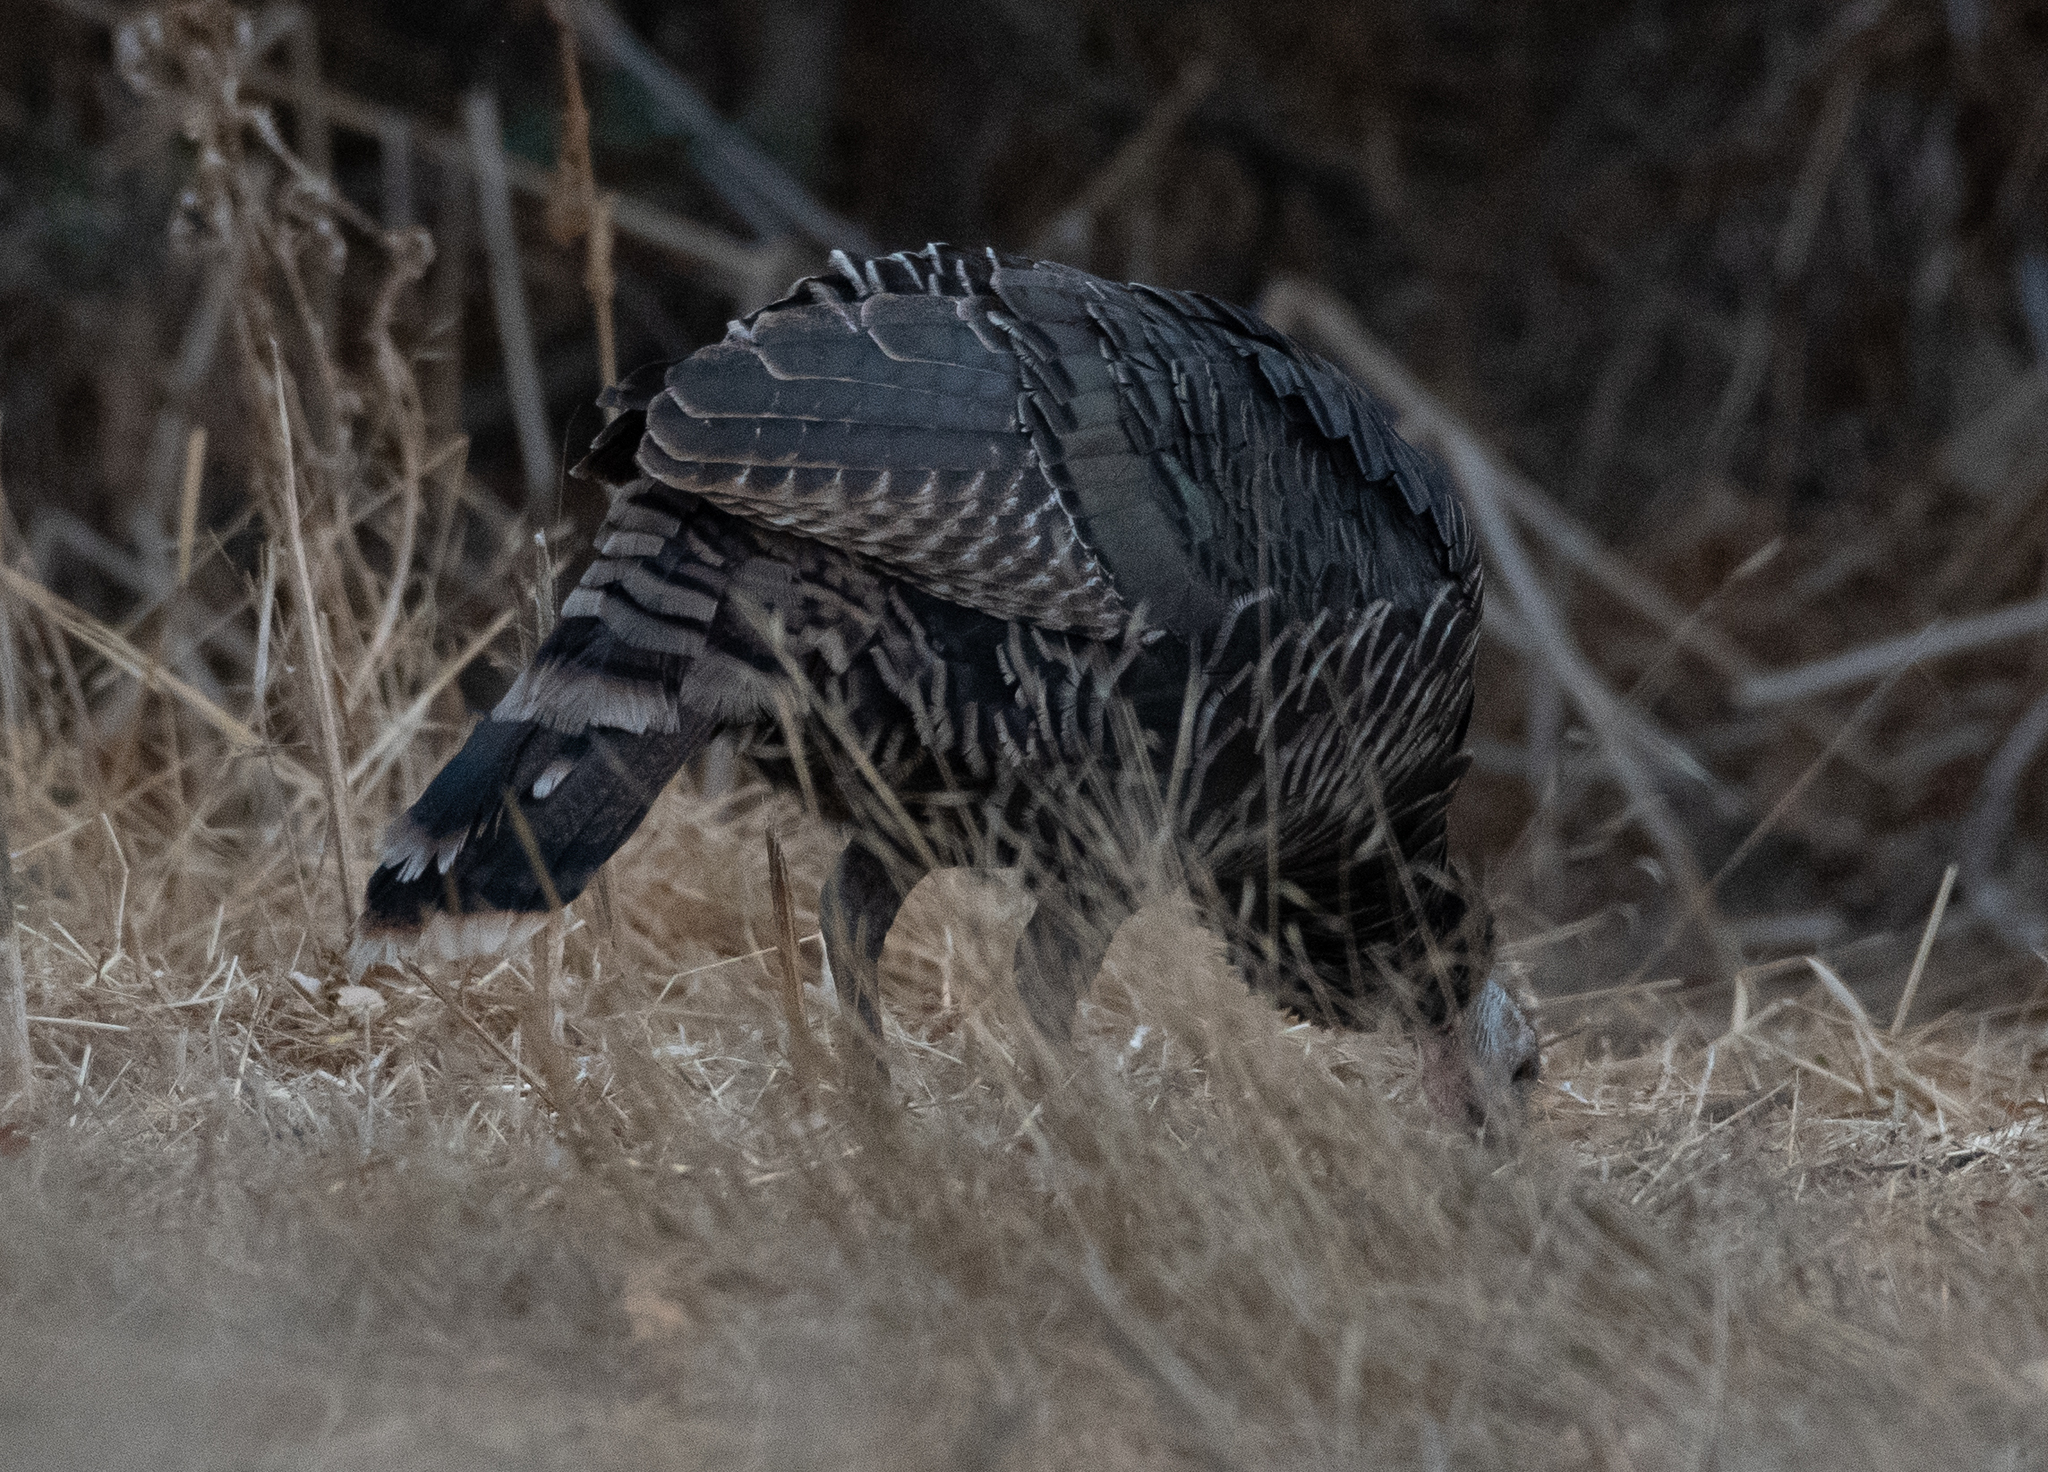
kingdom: Animalia
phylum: Chordata
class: Aves
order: Galliformes
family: Phasianidae
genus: Meleagris
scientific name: Meleagris gallopavo
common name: Wild turkey
